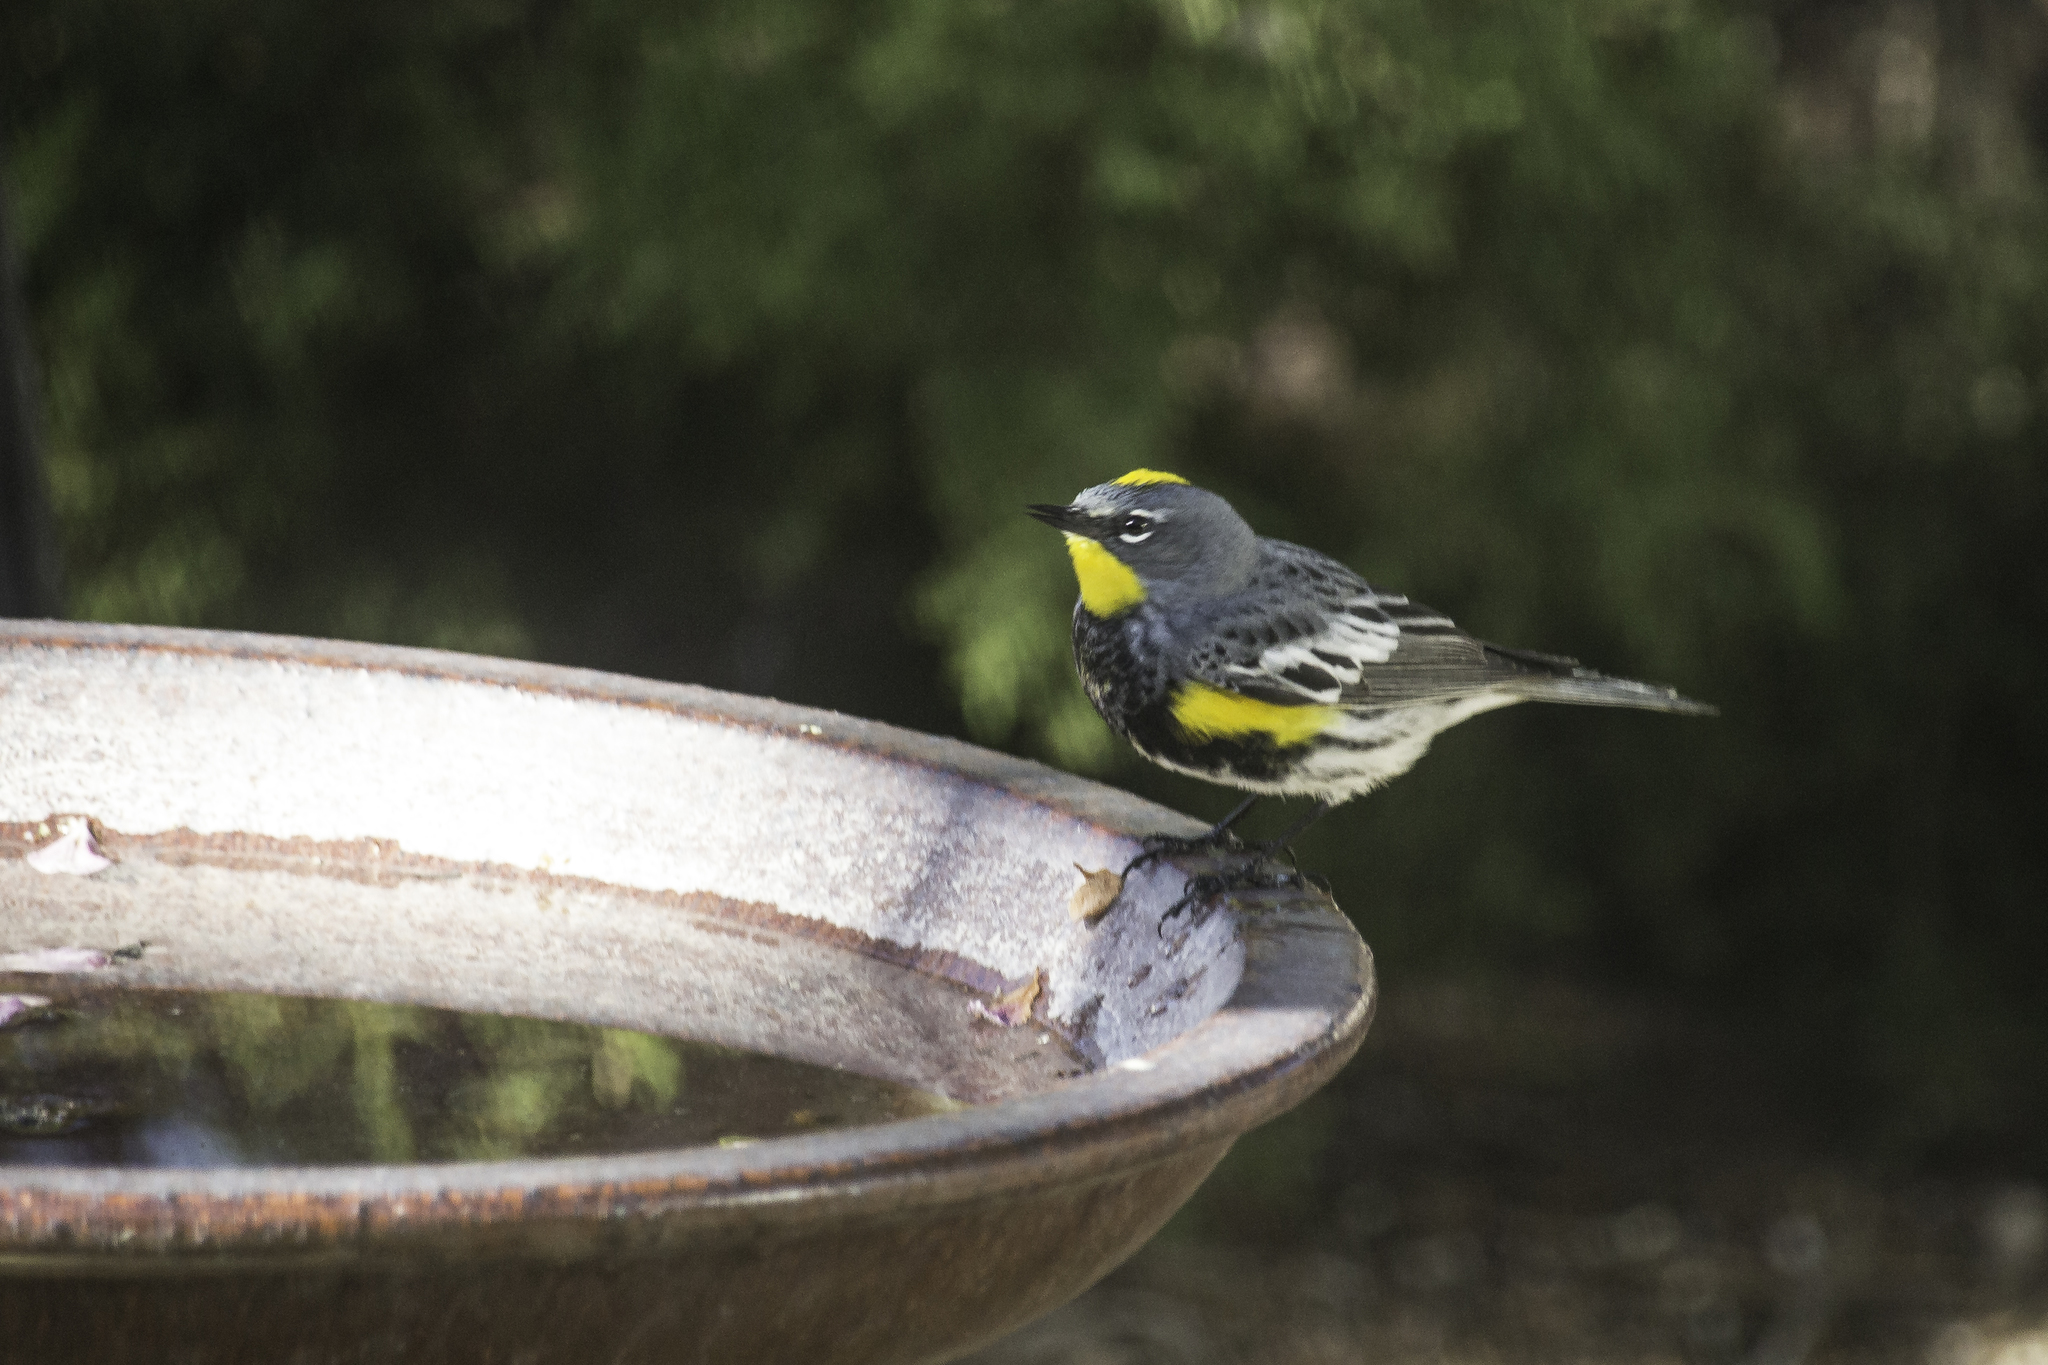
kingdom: Animalia
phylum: Chordata
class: Aves
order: Passeriformes
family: Parulidae
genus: Setophaga
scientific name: Setophaga coronata
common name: Myrtle warbler
